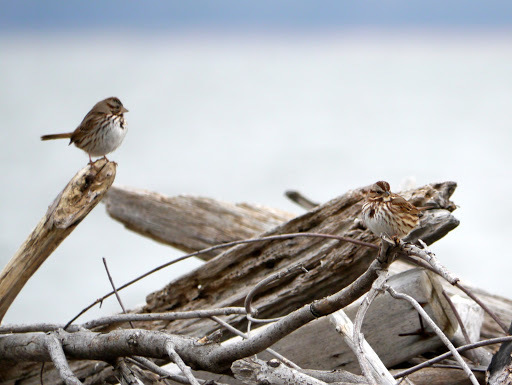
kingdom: Animalia
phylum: Chordata
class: Aves
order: Passeriformes
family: Passerellidae
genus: Melospiza
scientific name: Melospiza melodia
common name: Song sparrow
